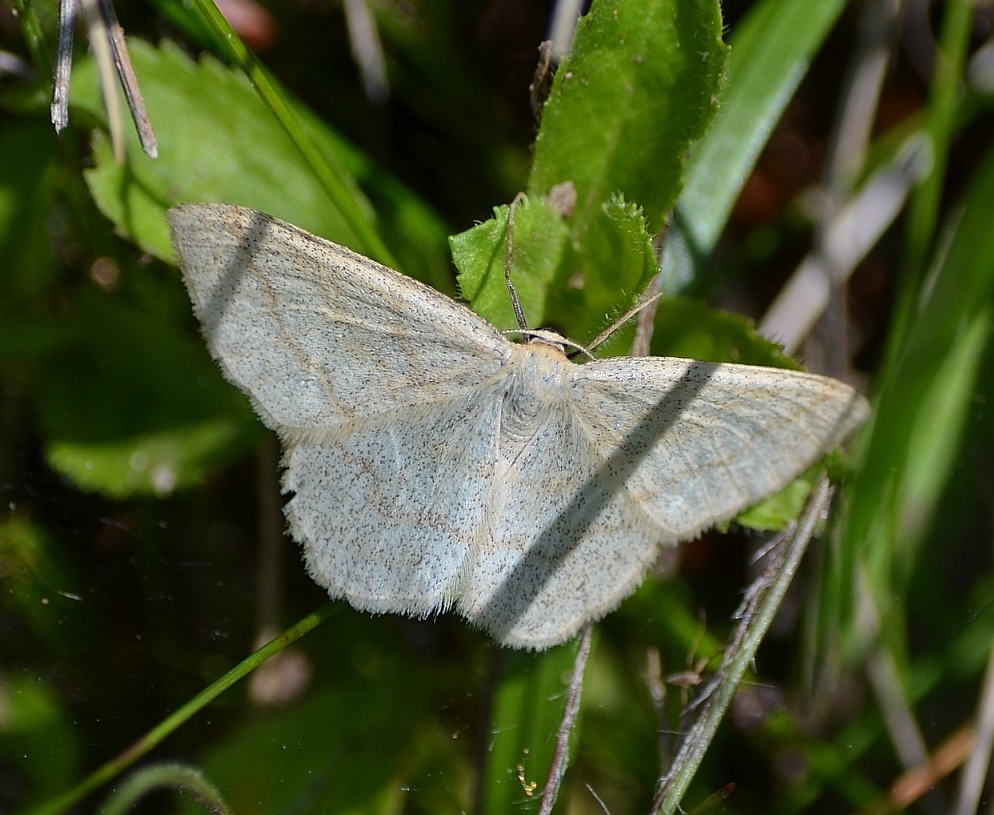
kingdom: Animalia
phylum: Arthropoda
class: Insecta
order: Lepidoptera
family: Geometridae
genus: Scopula
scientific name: Scopula ternata
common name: Smoky wave
